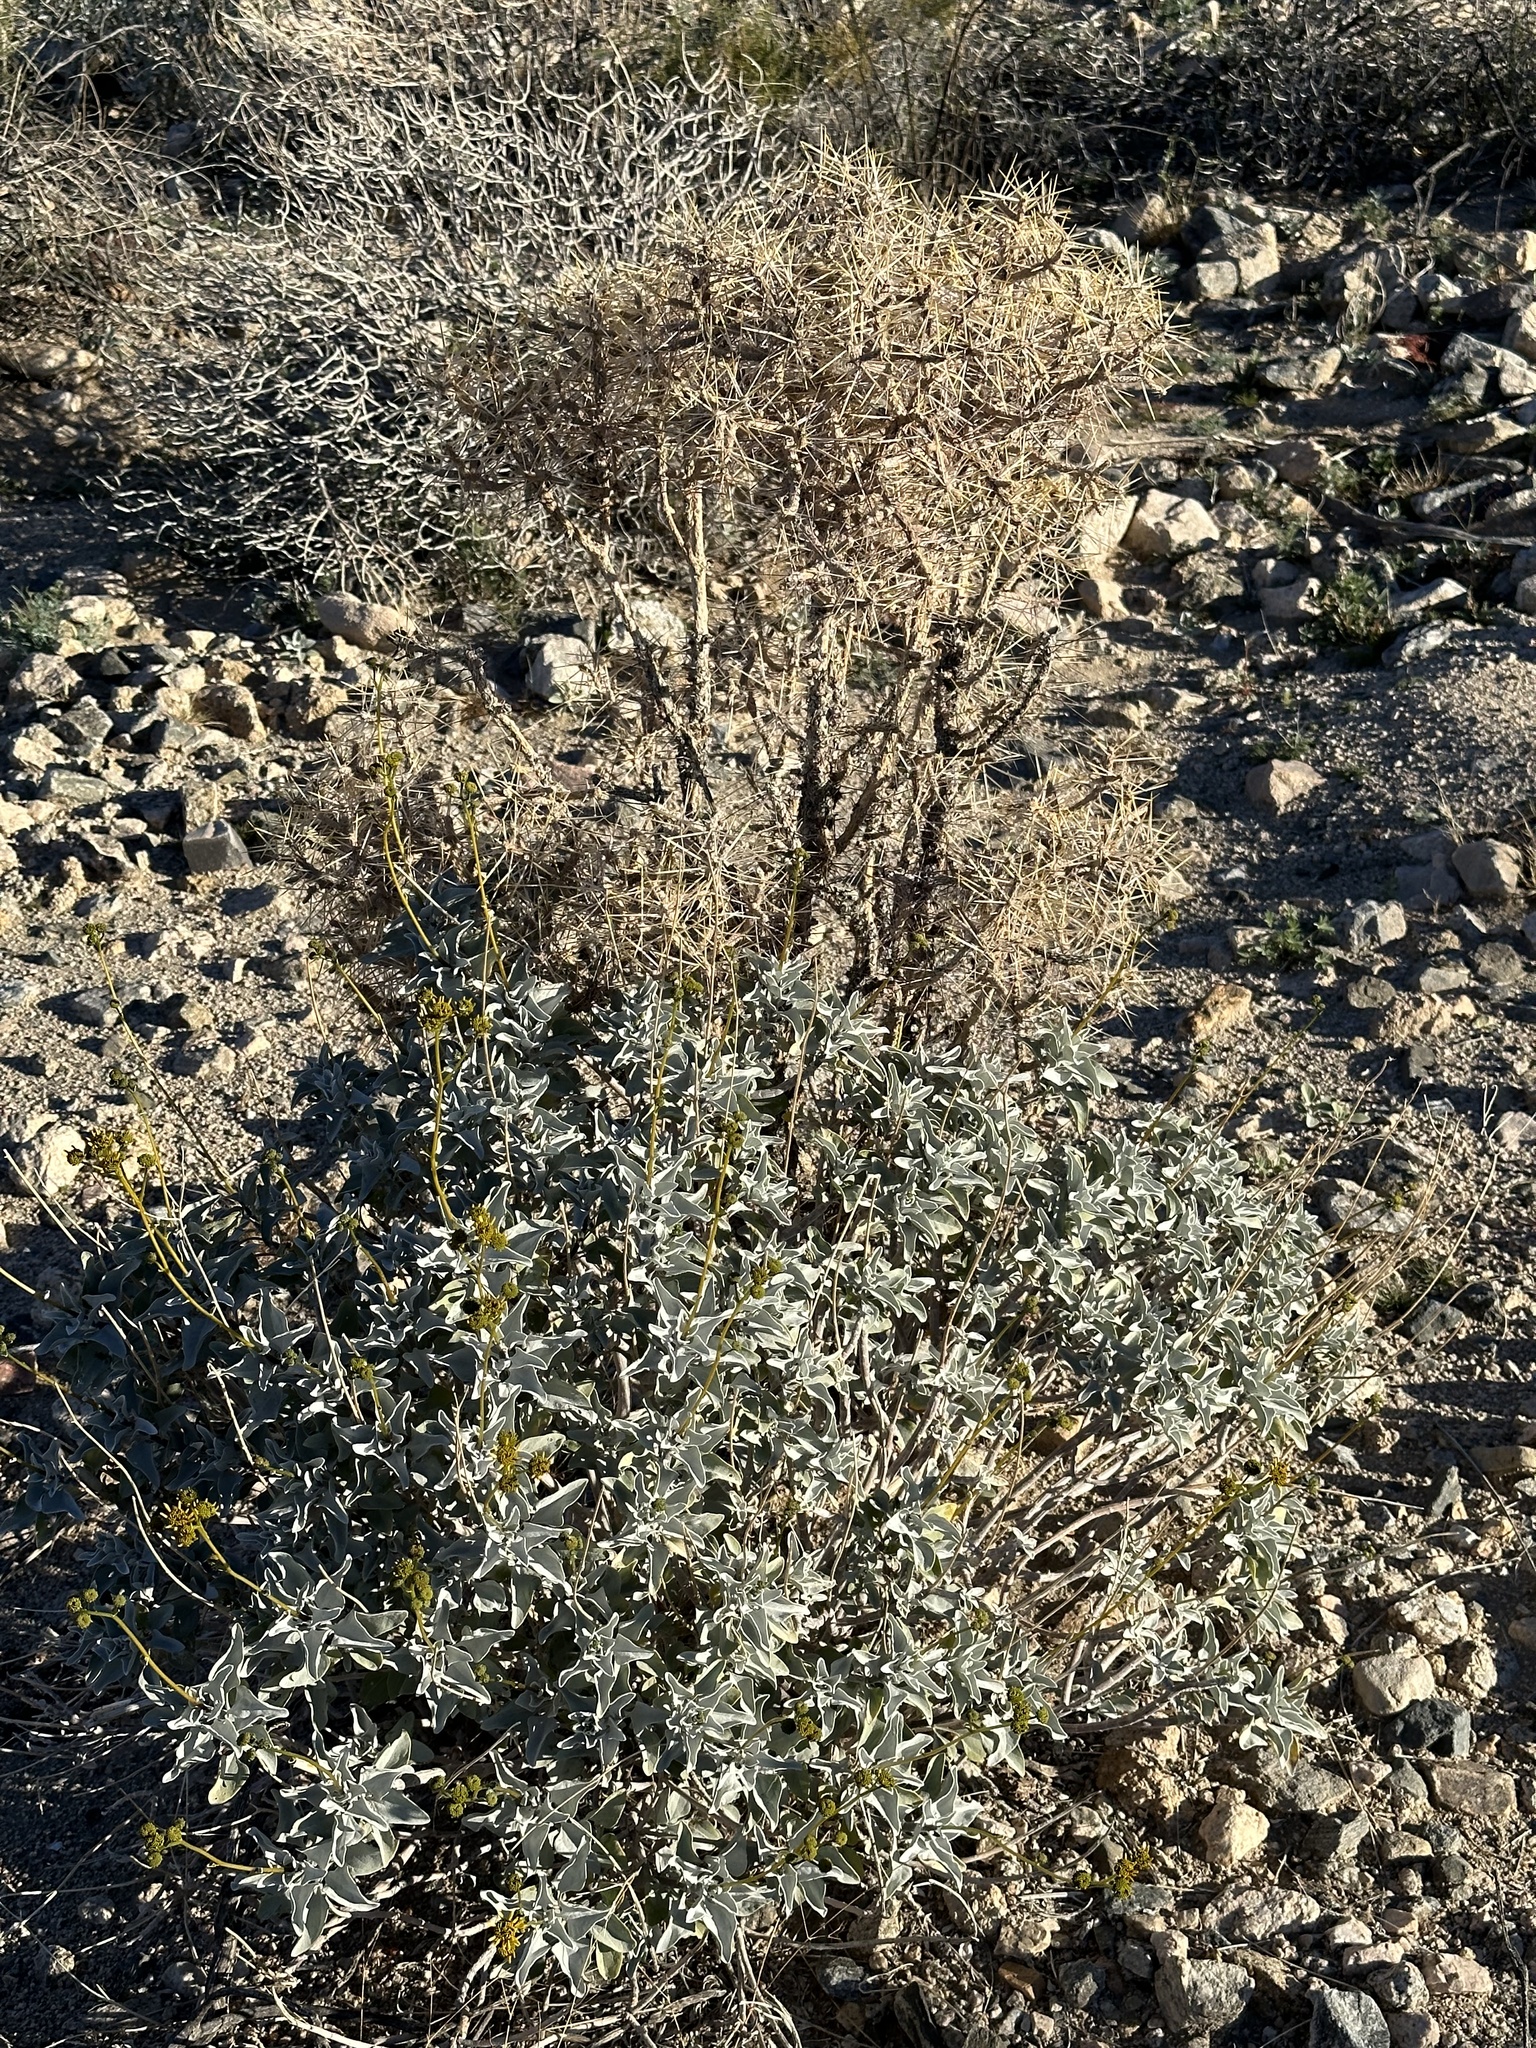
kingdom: Plantae
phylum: Tracheophyta
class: Magnoliopsida
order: Caryophyllales
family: Cactaceae
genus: Cylindropuntia
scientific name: Cylindropuntia ramosissima
